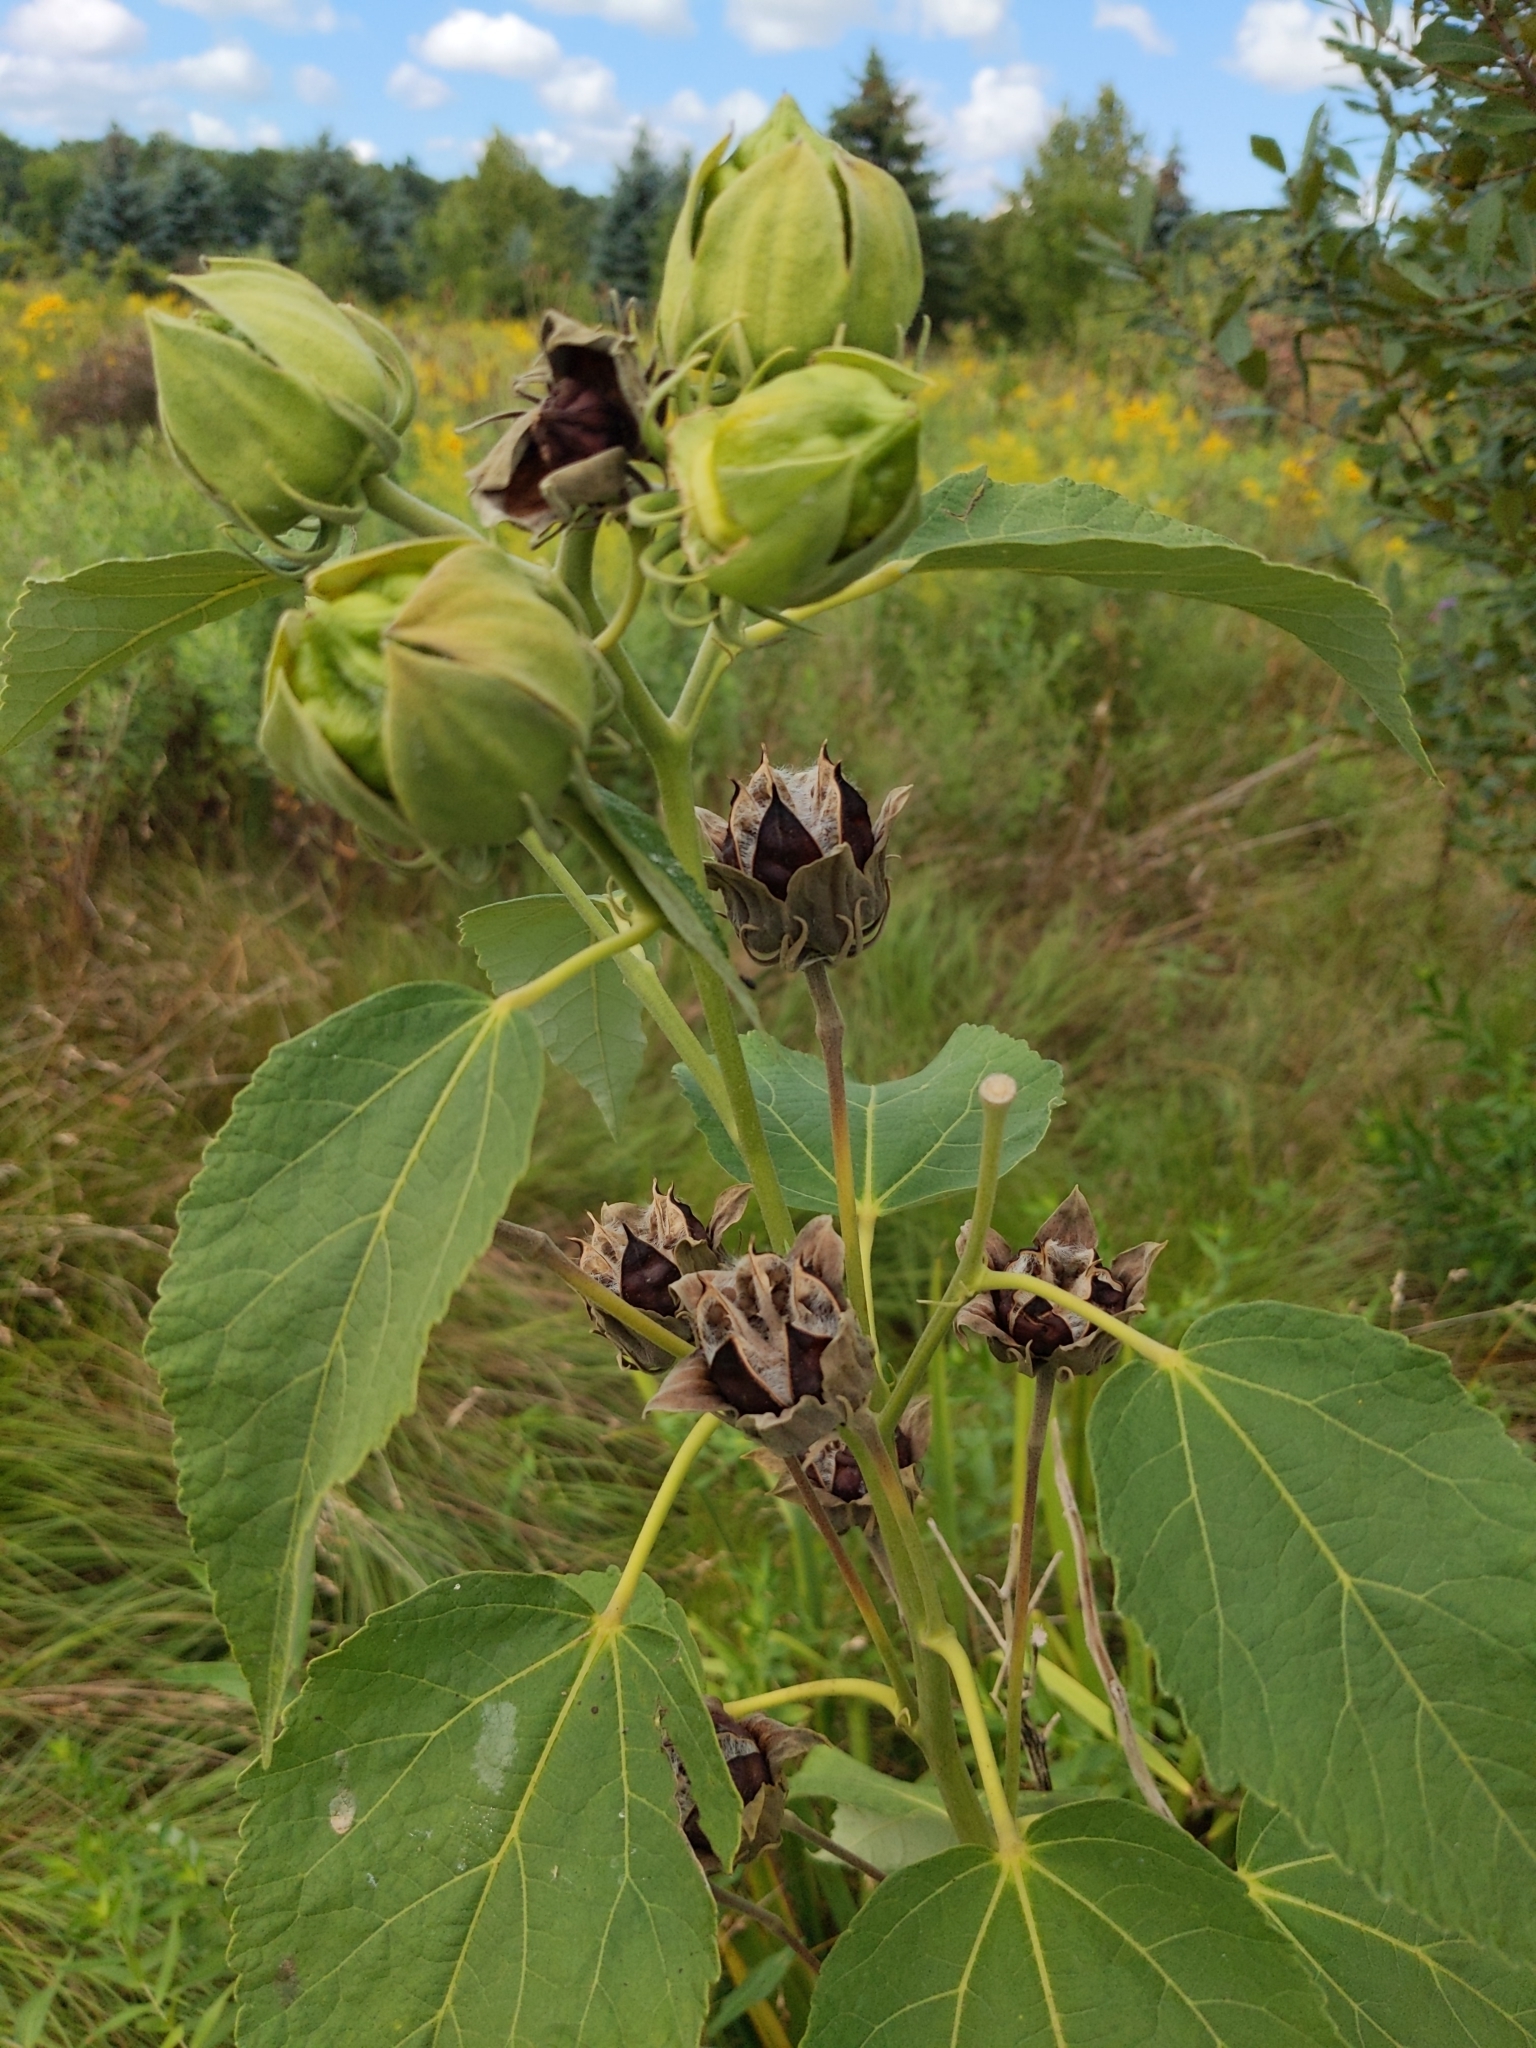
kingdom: Plantae
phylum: Tracheophyta
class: Magnoliopsida
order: Malvales
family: Malvaceae
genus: Hibiscus
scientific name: Hibiscus moscheutos
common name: Common rose-mallow
